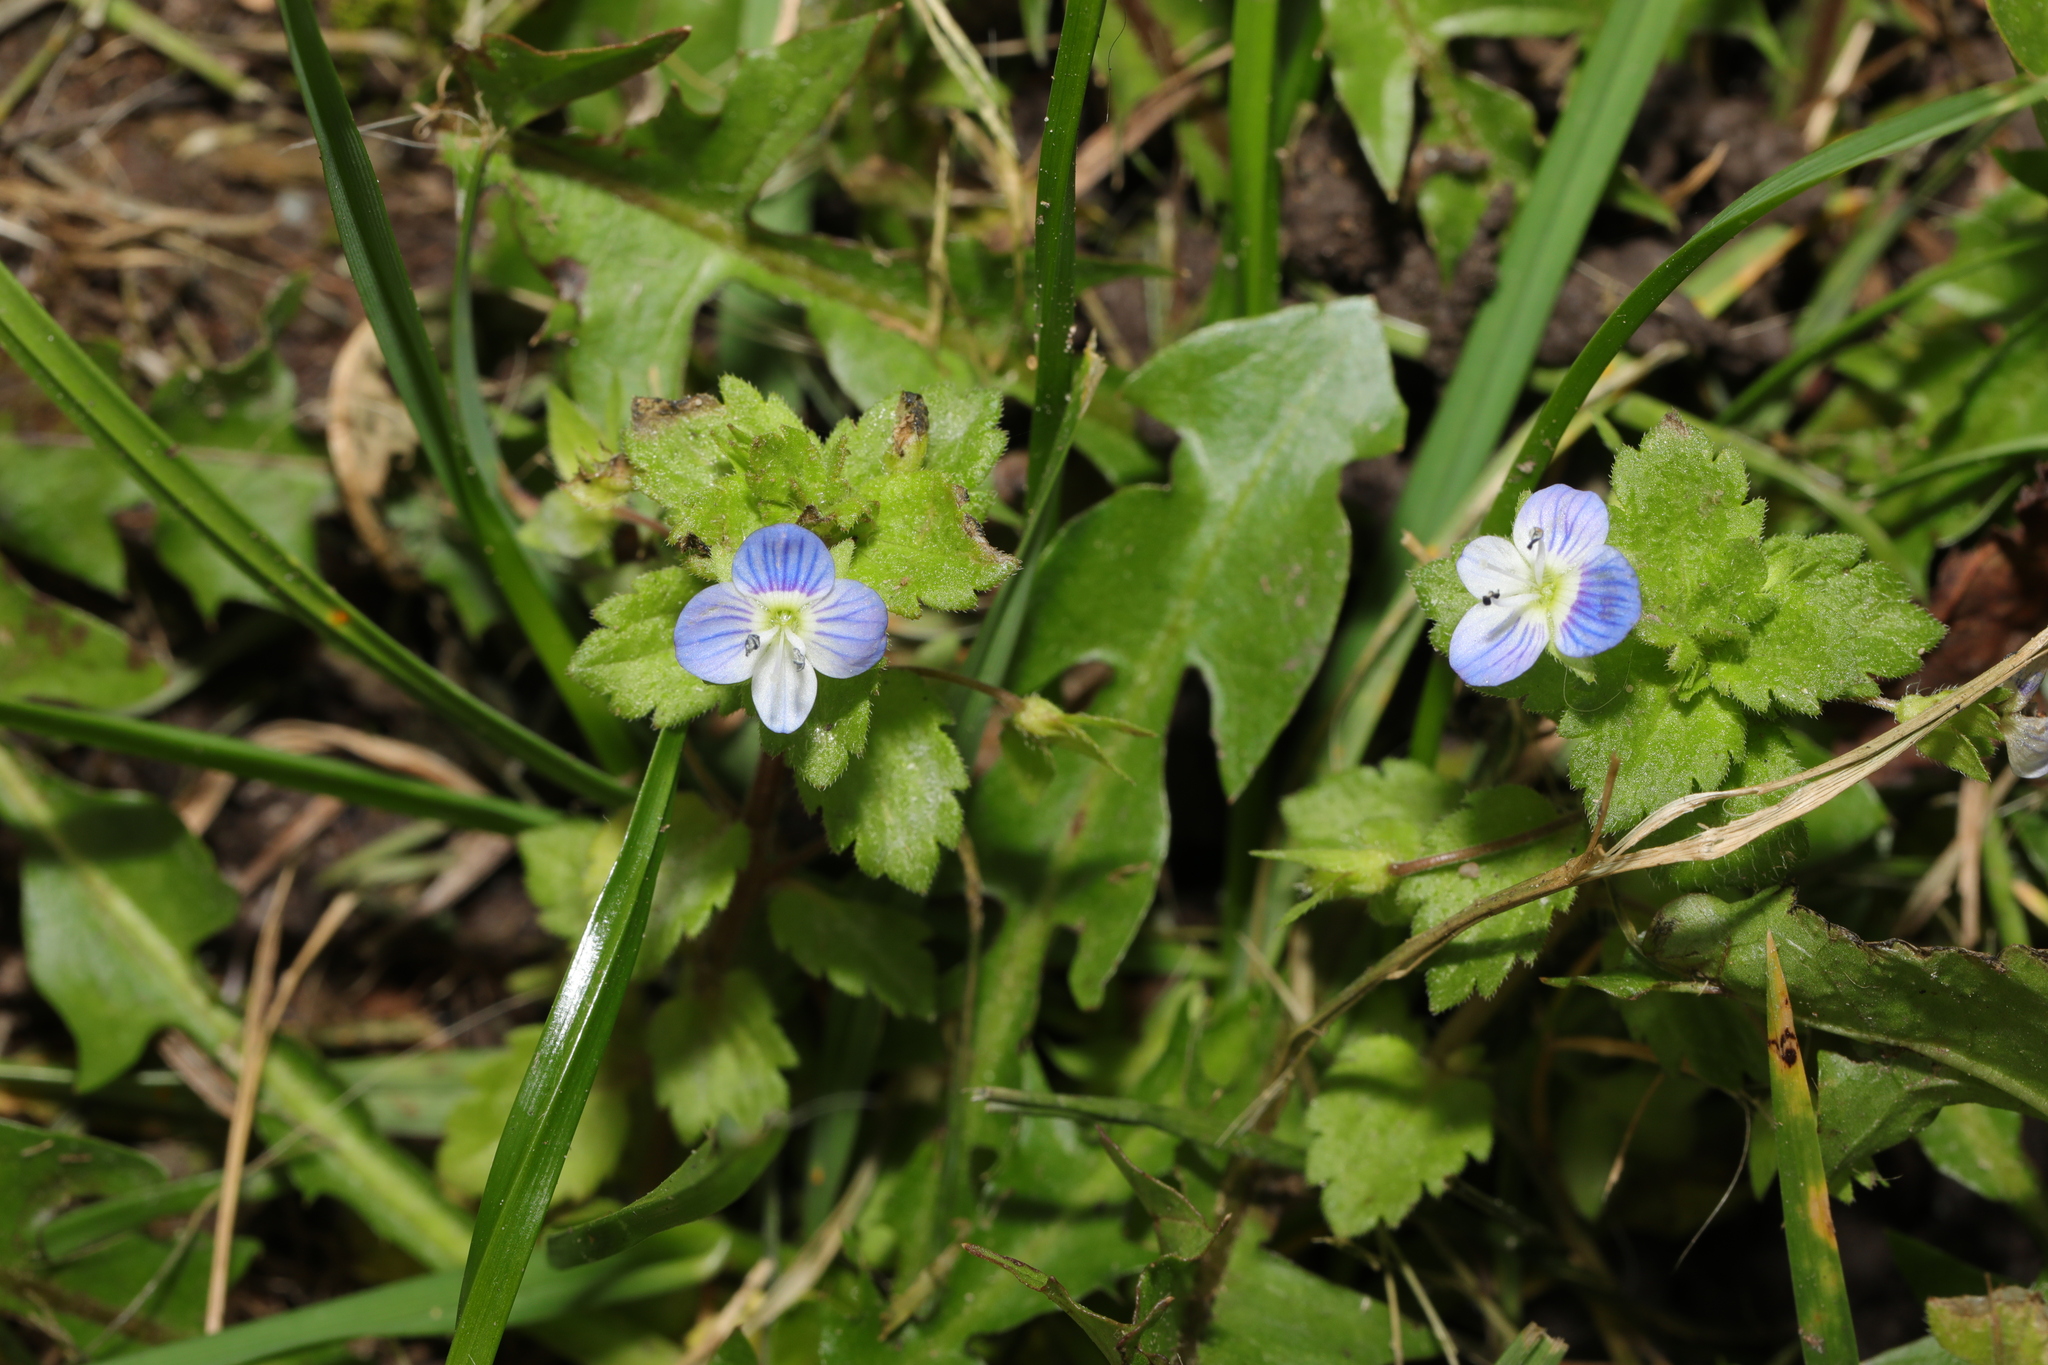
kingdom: Plantae
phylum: Tracheophyta
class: Magnoliopsida
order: Lamiales
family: Plantaginaceae
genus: Veronica
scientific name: Veronica persica
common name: Common field-speedwell
